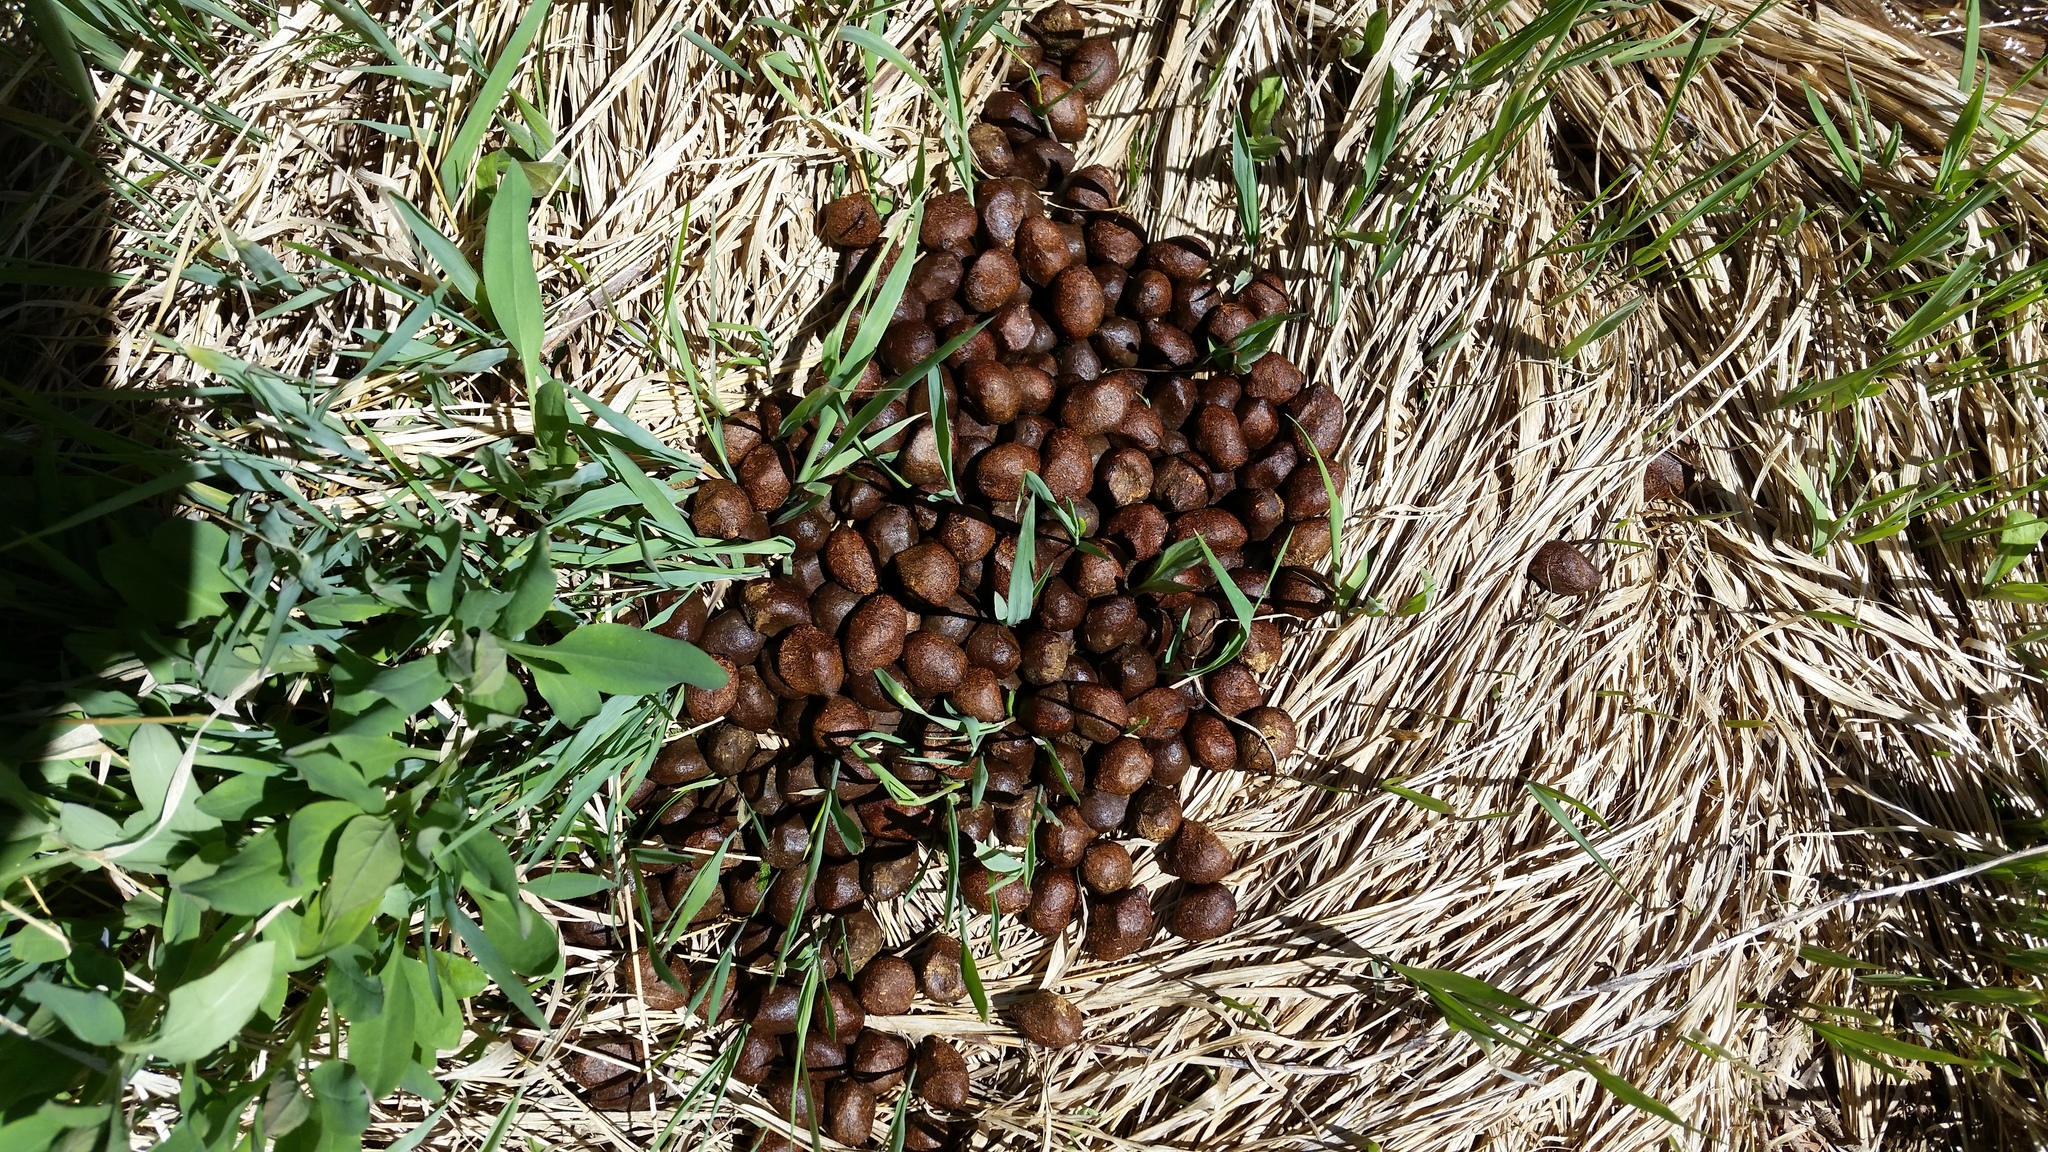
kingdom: Animalia
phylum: Chordata
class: Mammalia
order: Artiodactyla
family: Cervidae
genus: Alces
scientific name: Alces alces
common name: Moose
